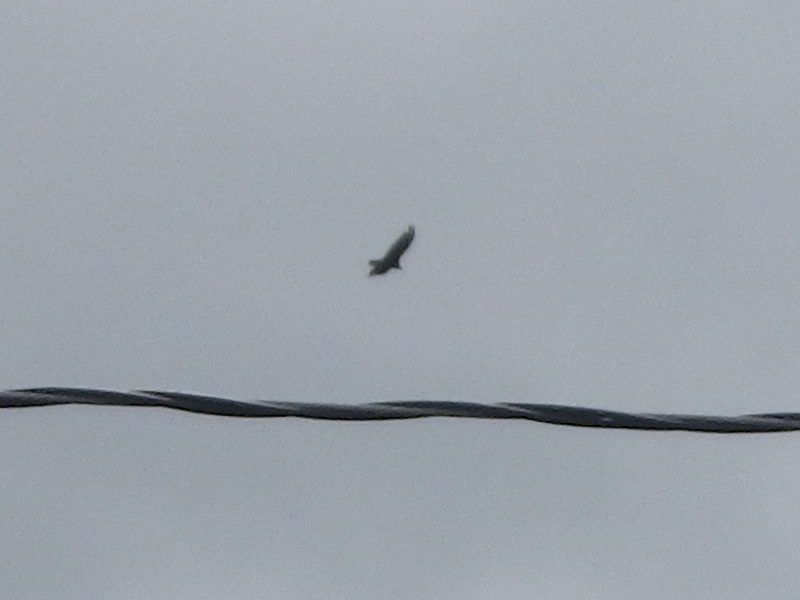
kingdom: Animalia
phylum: Chordata
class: Aves
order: Accipitriformes
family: Cathartidae
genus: Cathartes
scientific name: Cathartes aura
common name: Turkey vulture
